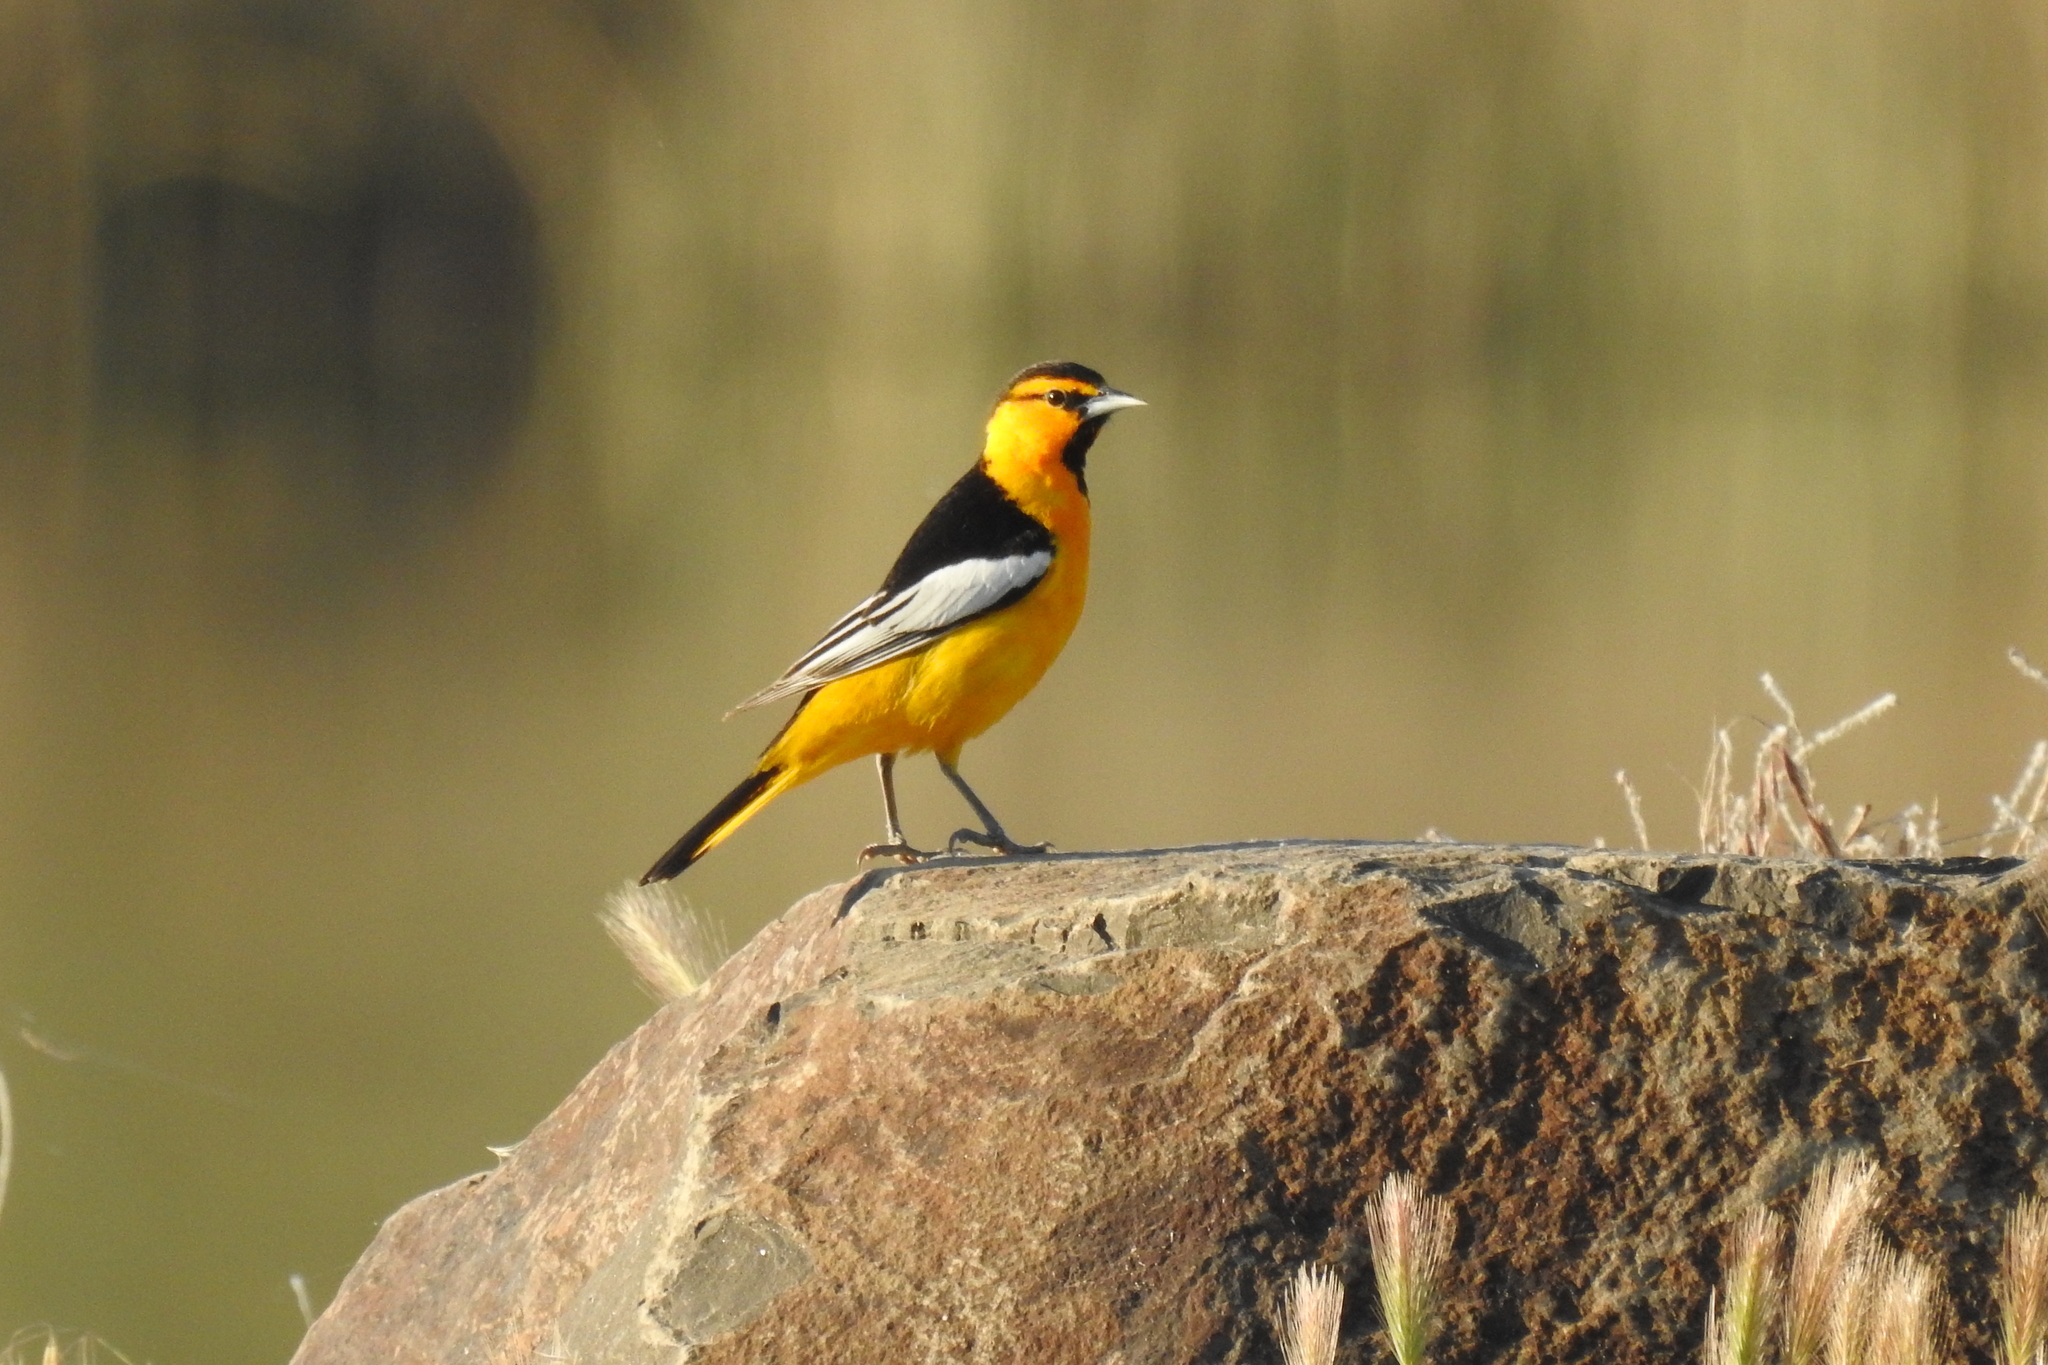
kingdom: Animalia
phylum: Chordata
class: Aves
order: Passeriformes
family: Icteridae
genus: Icterus
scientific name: Icterus bullockii
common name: Bullock's oriole
